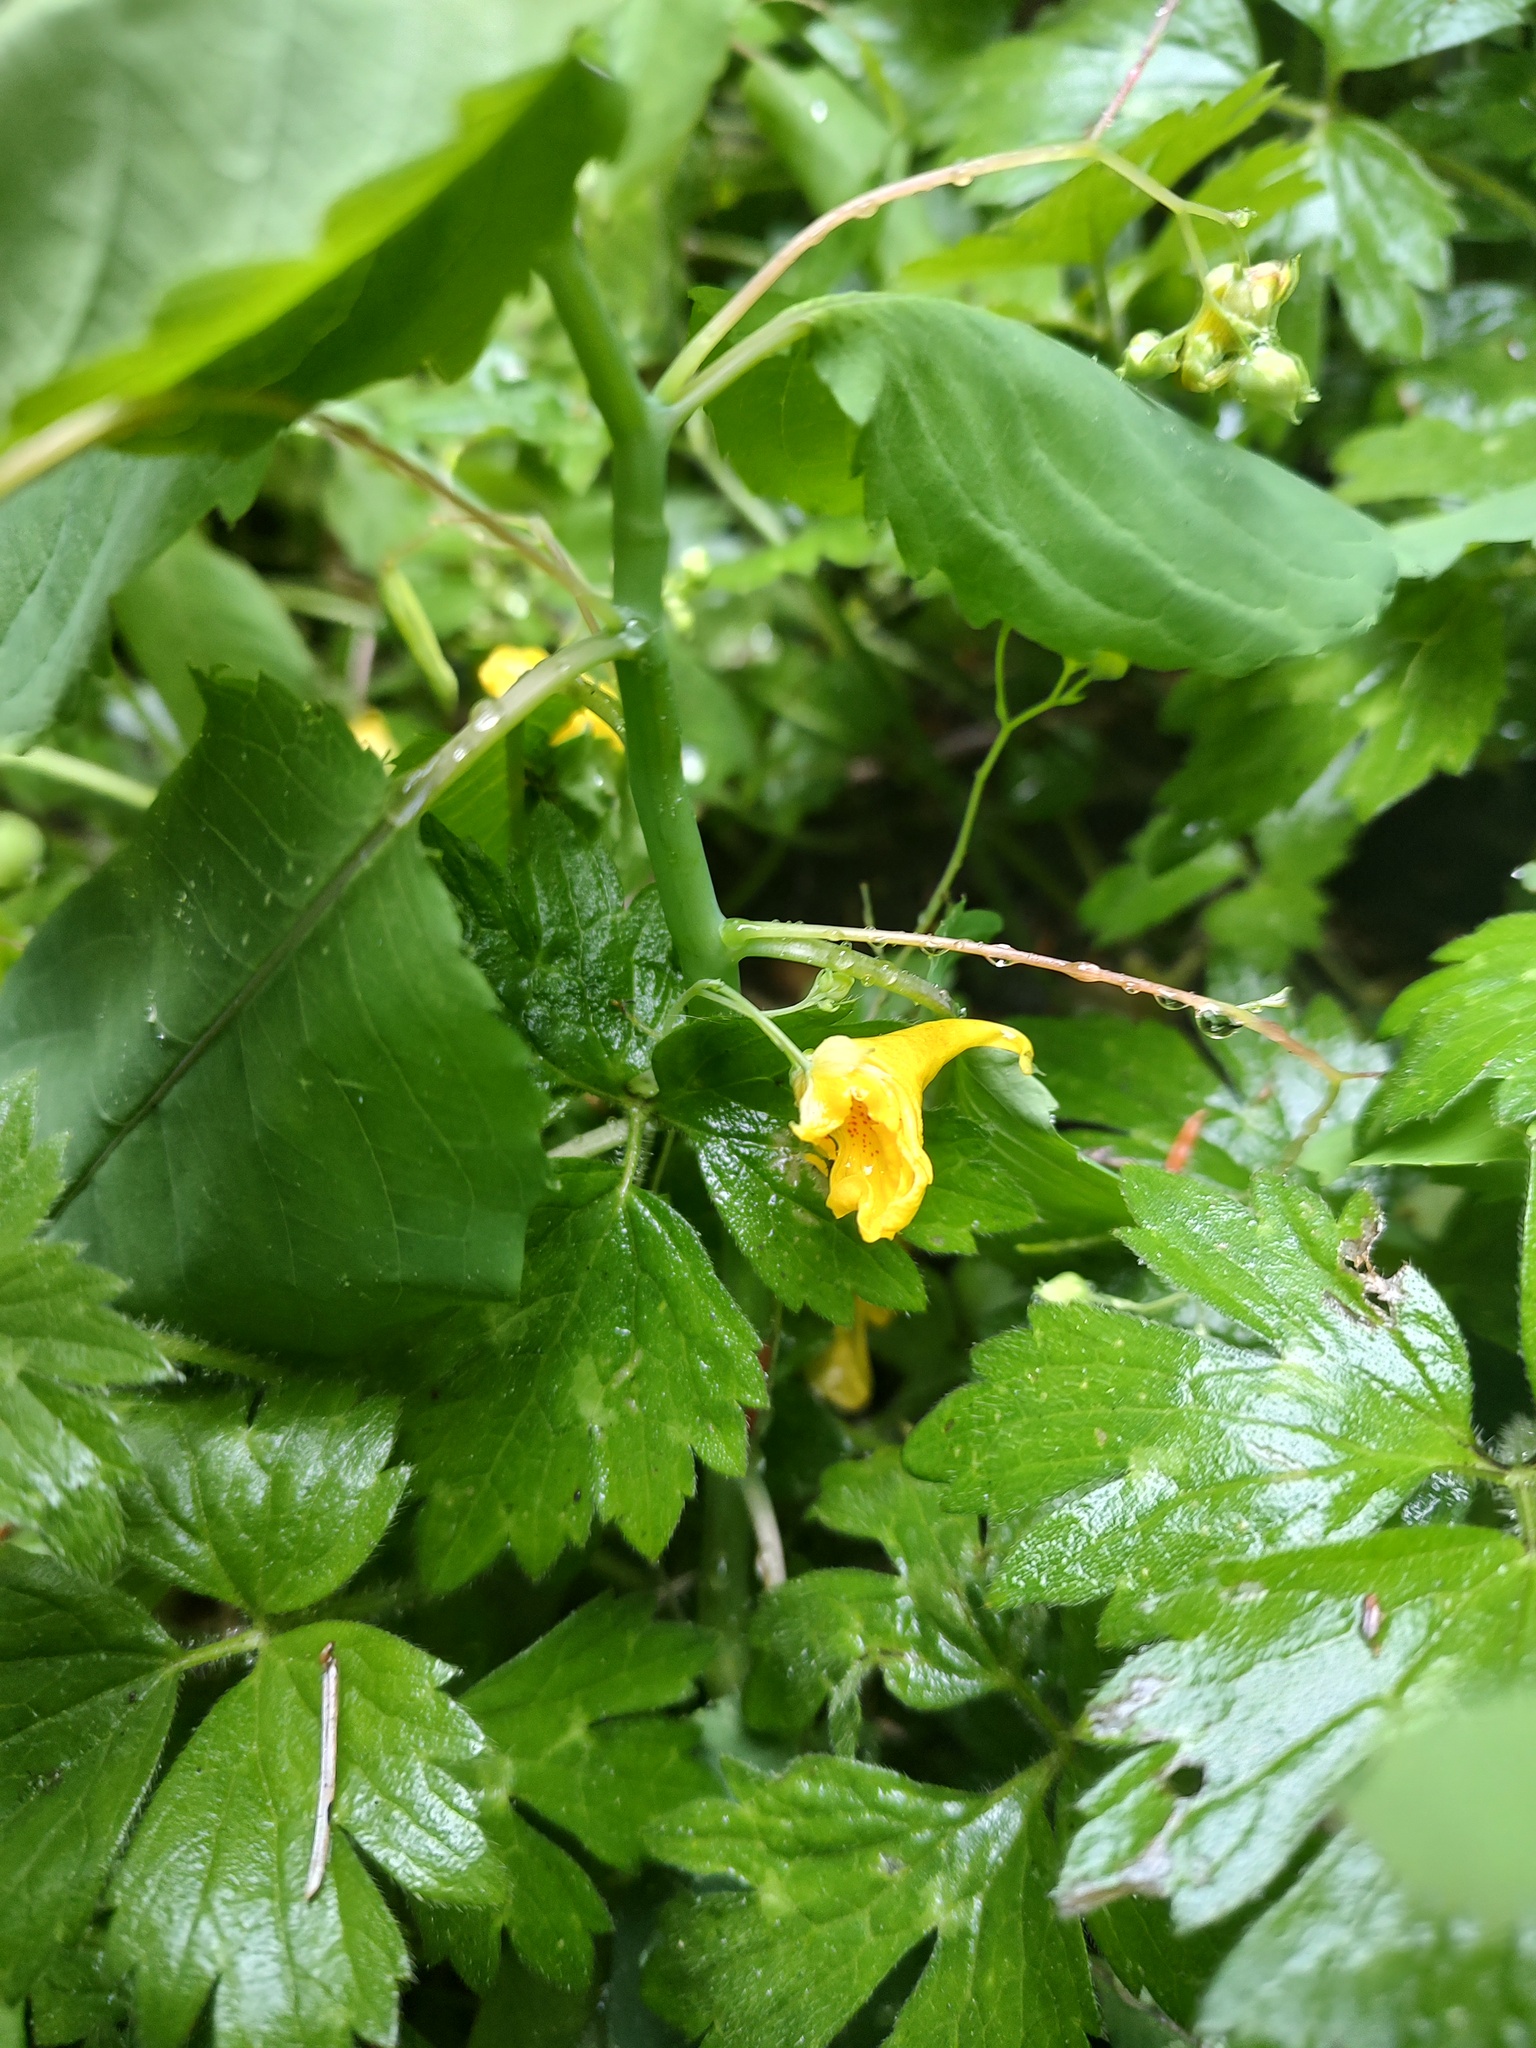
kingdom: Plantae
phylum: Tracheophyta
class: Magnoliopsida
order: Ericales
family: Balsaminaceae
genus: Impatiens
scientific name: Impatiens noli-tangere
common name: Touch-me-not balsam
